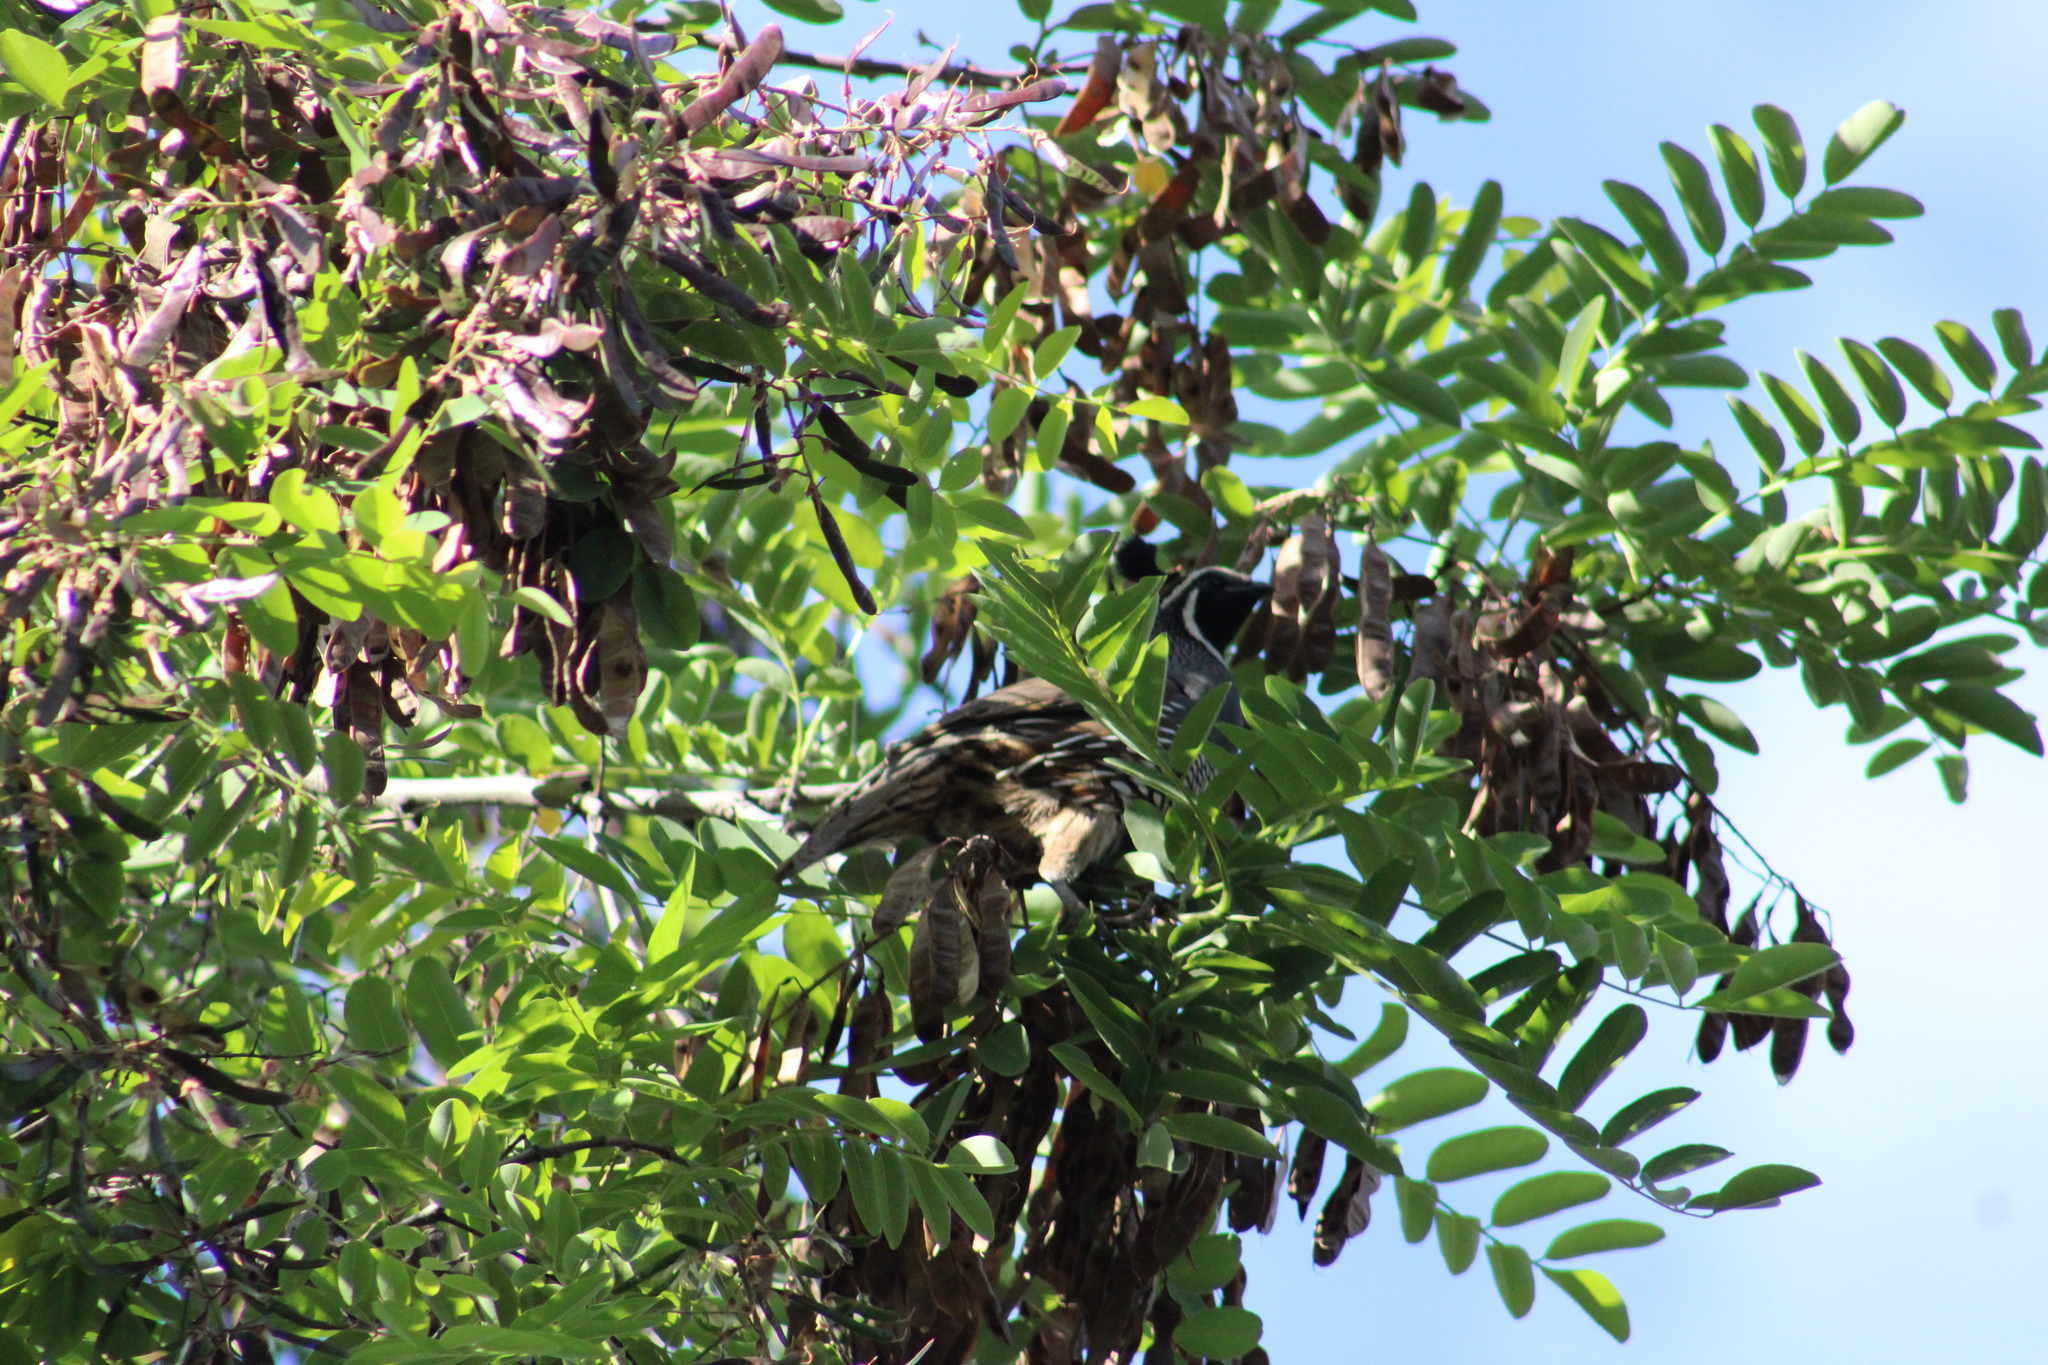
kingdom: Animalia
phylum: Chordata
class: Aves
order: Galliformes
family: Odontophoridae
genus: Callipepla
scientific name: Callipepla californica
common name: California quail
